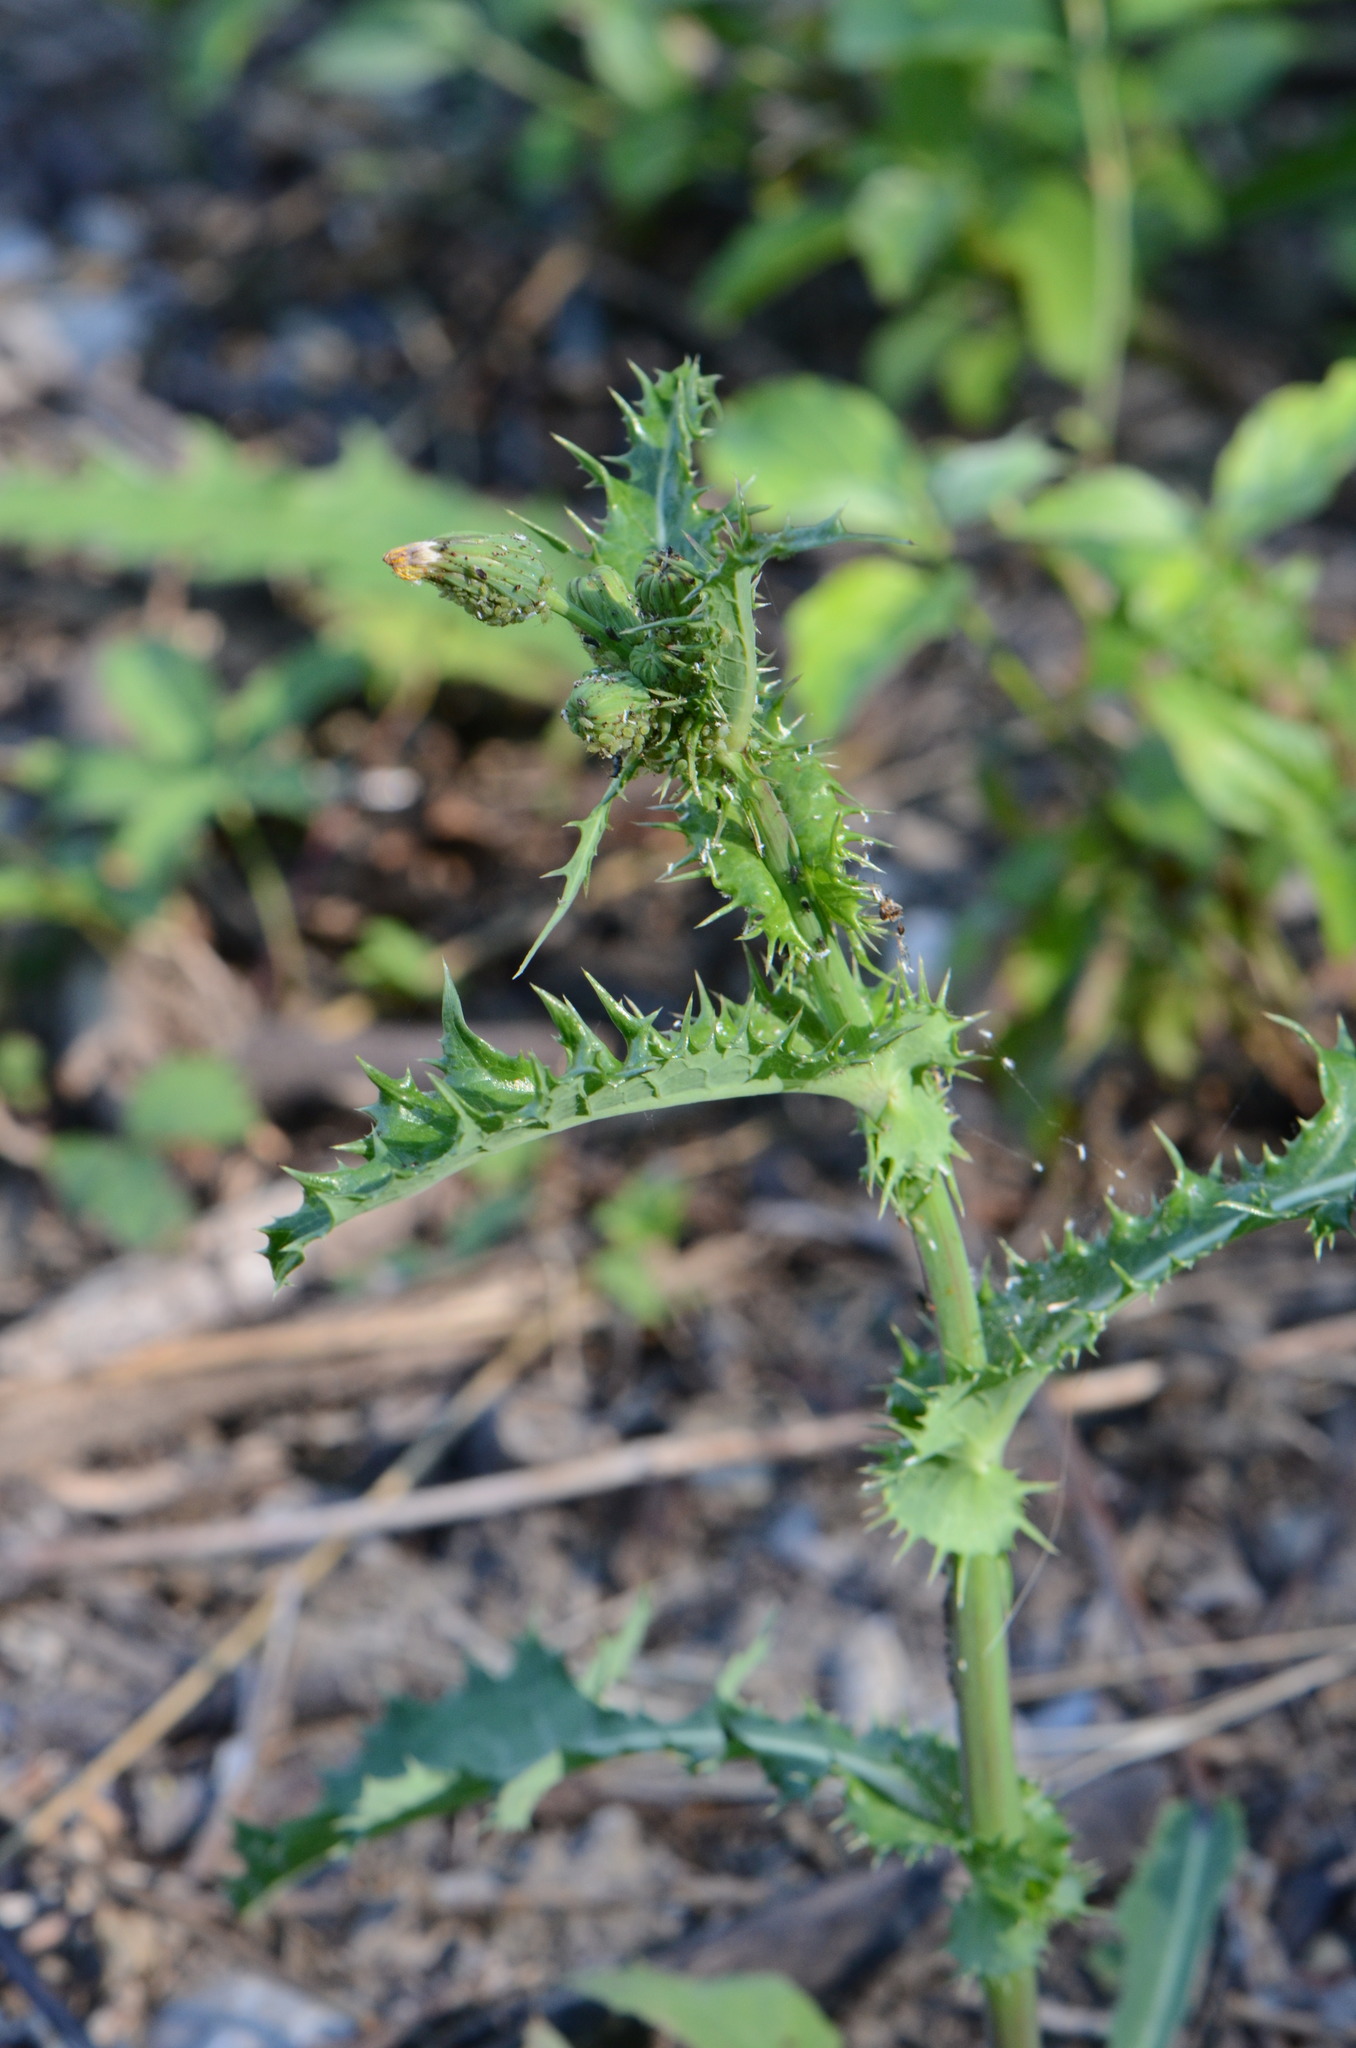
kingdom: Plantae
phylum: Tracheophyta
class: Magnoliopsida
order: Asterales
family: Asteraceae
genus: Sonchus
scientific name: Sonchus asper
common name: Prickly sow-thistle
